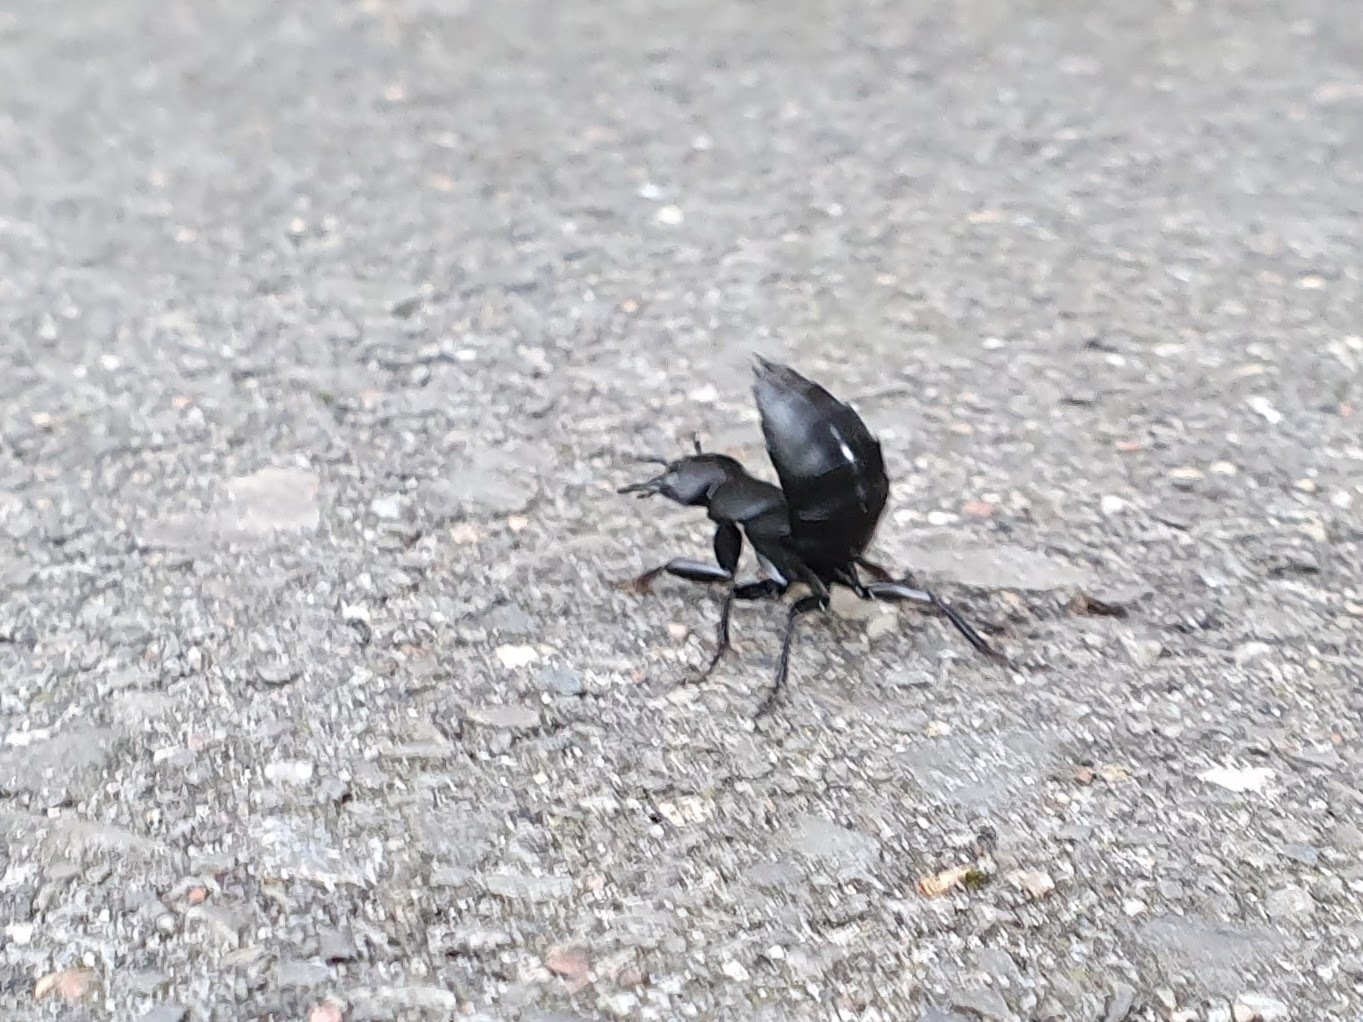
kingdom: Animalia
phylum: Arthropoda
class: Insecta
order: Coleoptera
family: Staphylinidae
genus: Ocypus
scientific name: Ocypus olens
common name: Devil's coach-horse
